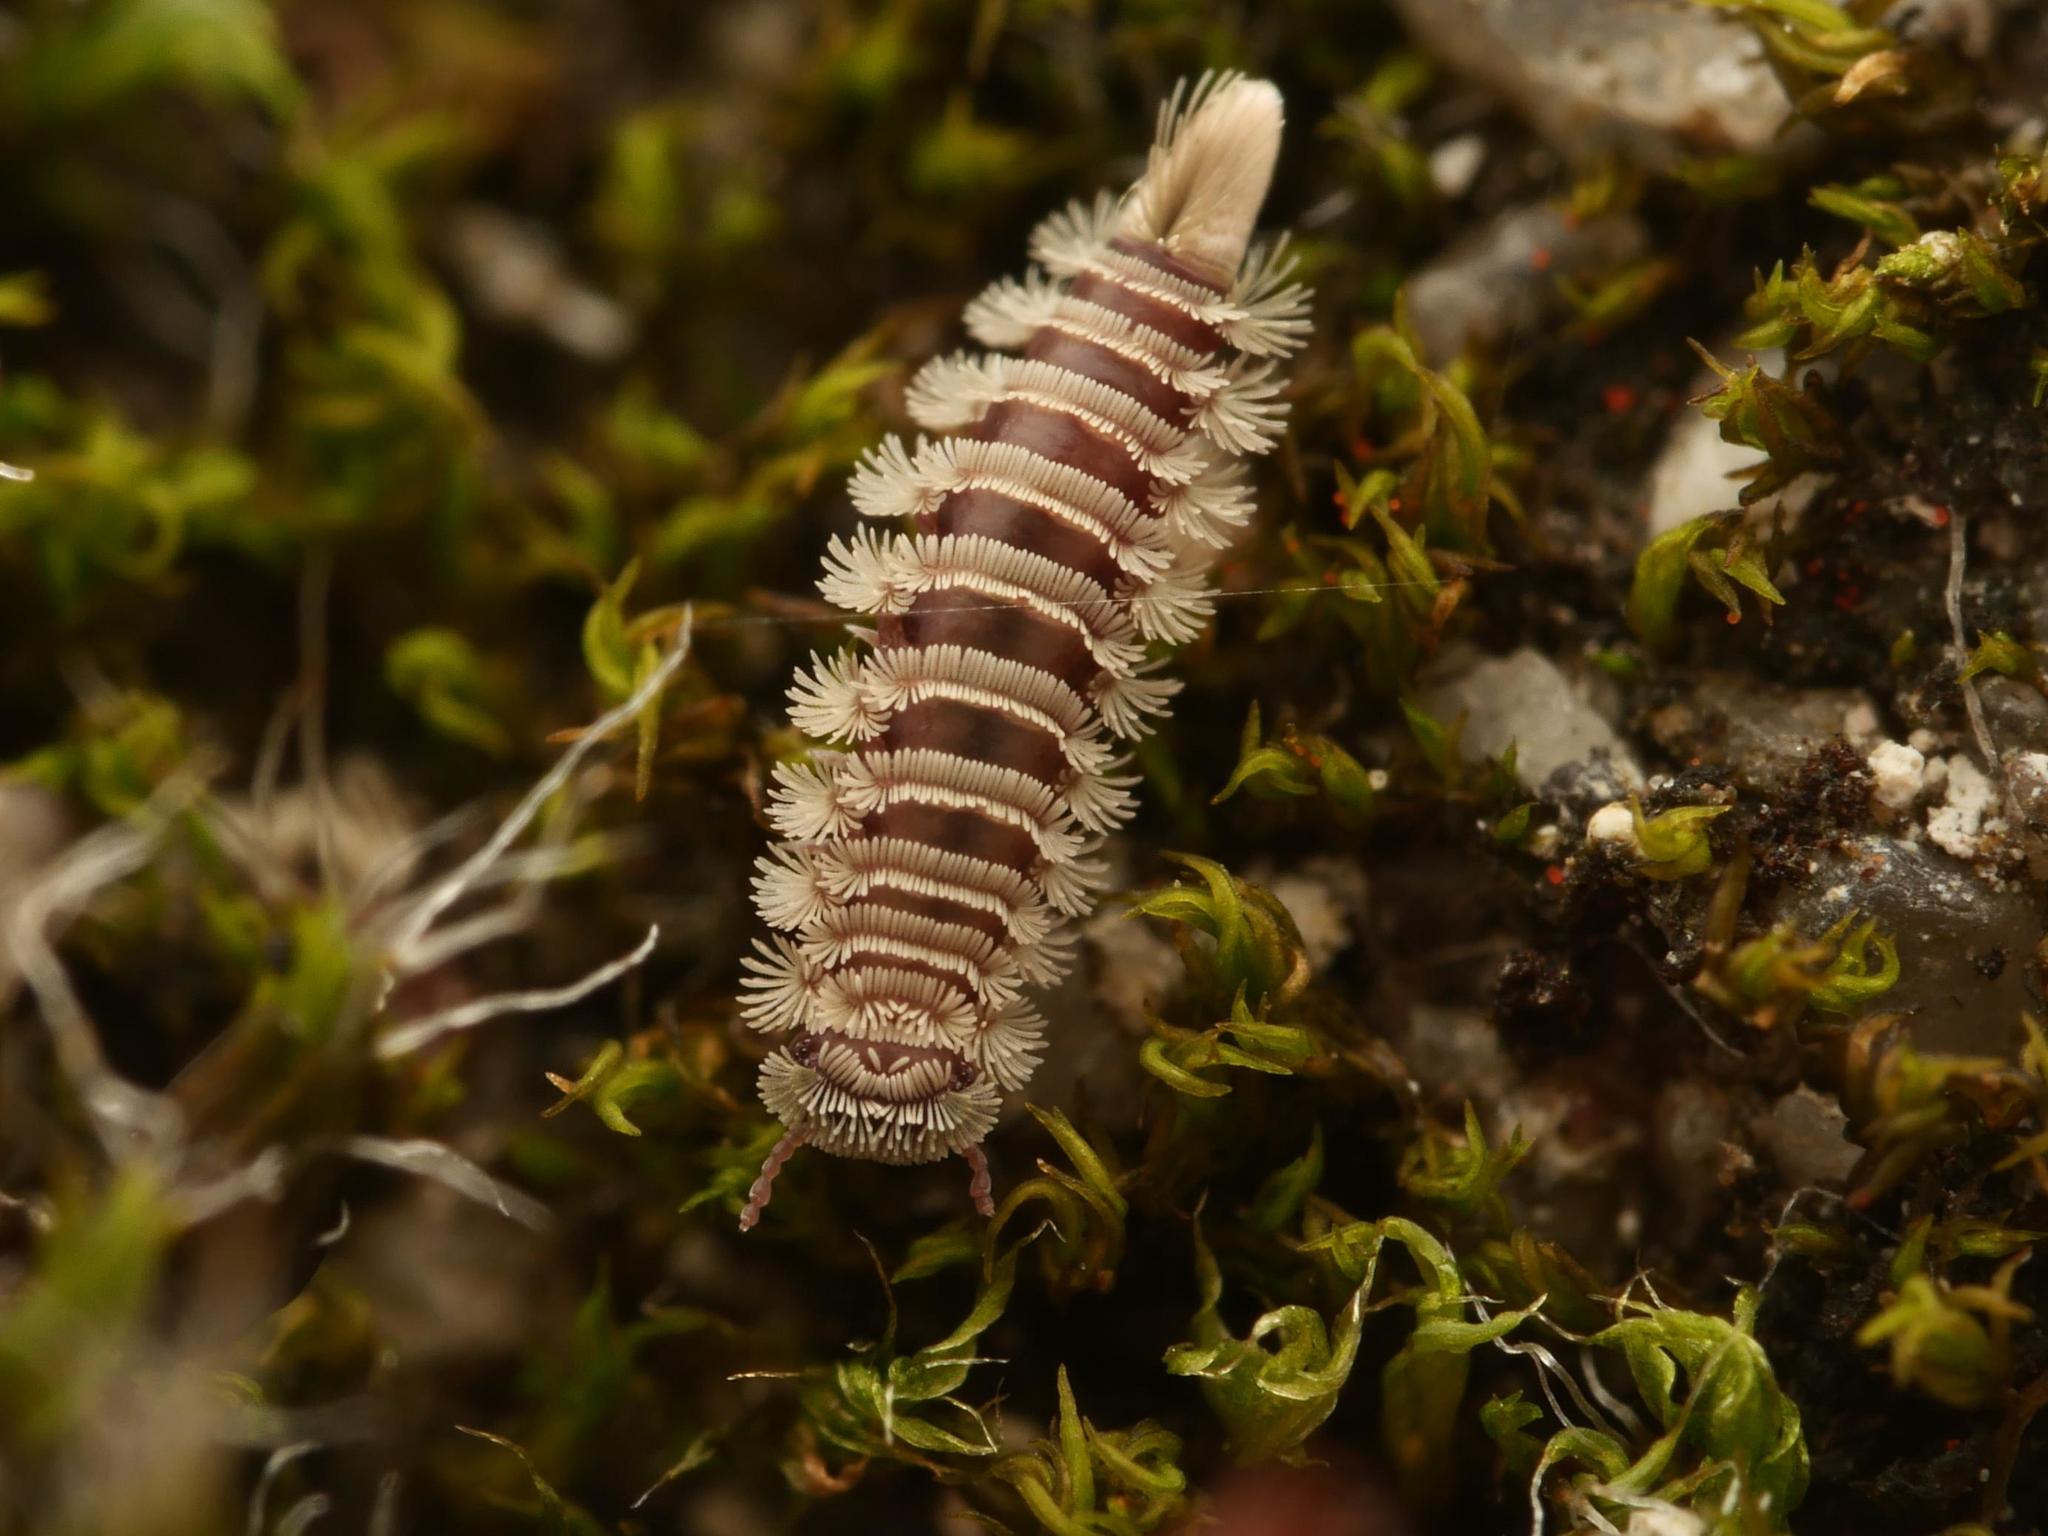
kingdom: Animalia
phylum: Arthropoda
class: Diplopoda
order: Polyxenida
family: Polyxenidae
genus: Polyxenus
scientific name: Polyxenus lagurus
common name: Bristly millipede
